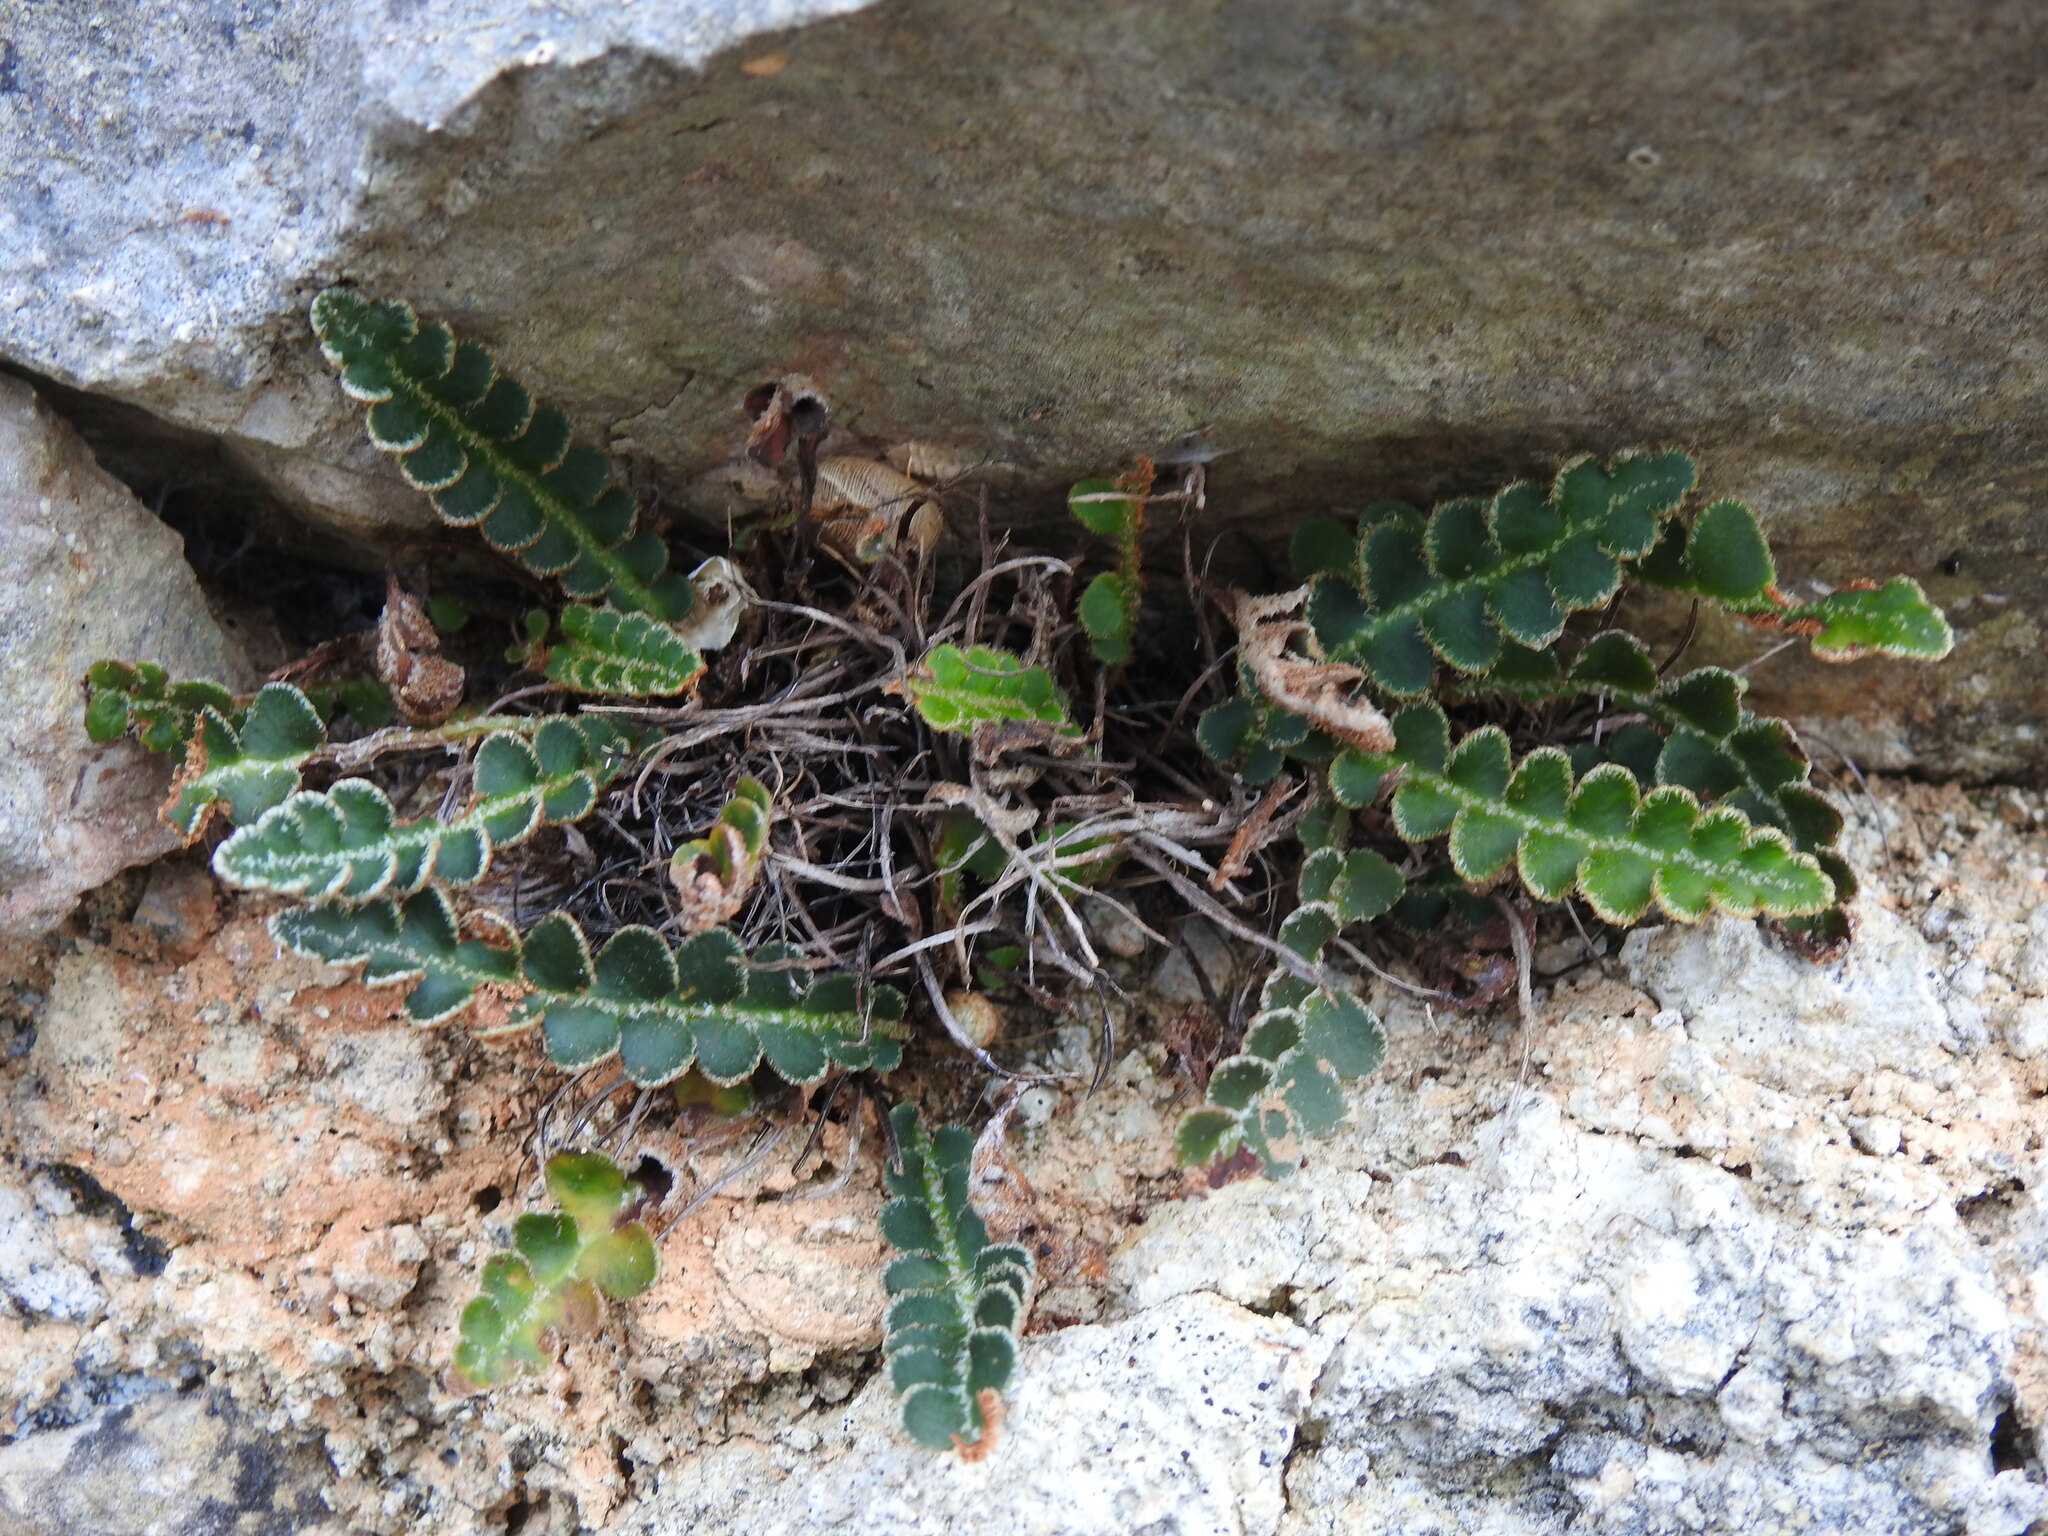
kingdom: Plantae
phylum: Tracheophyta
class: Polypodiopsida
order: Polypodiales
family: Aspleniaceae
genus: Asplenium
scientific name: Asplenium ceterach
